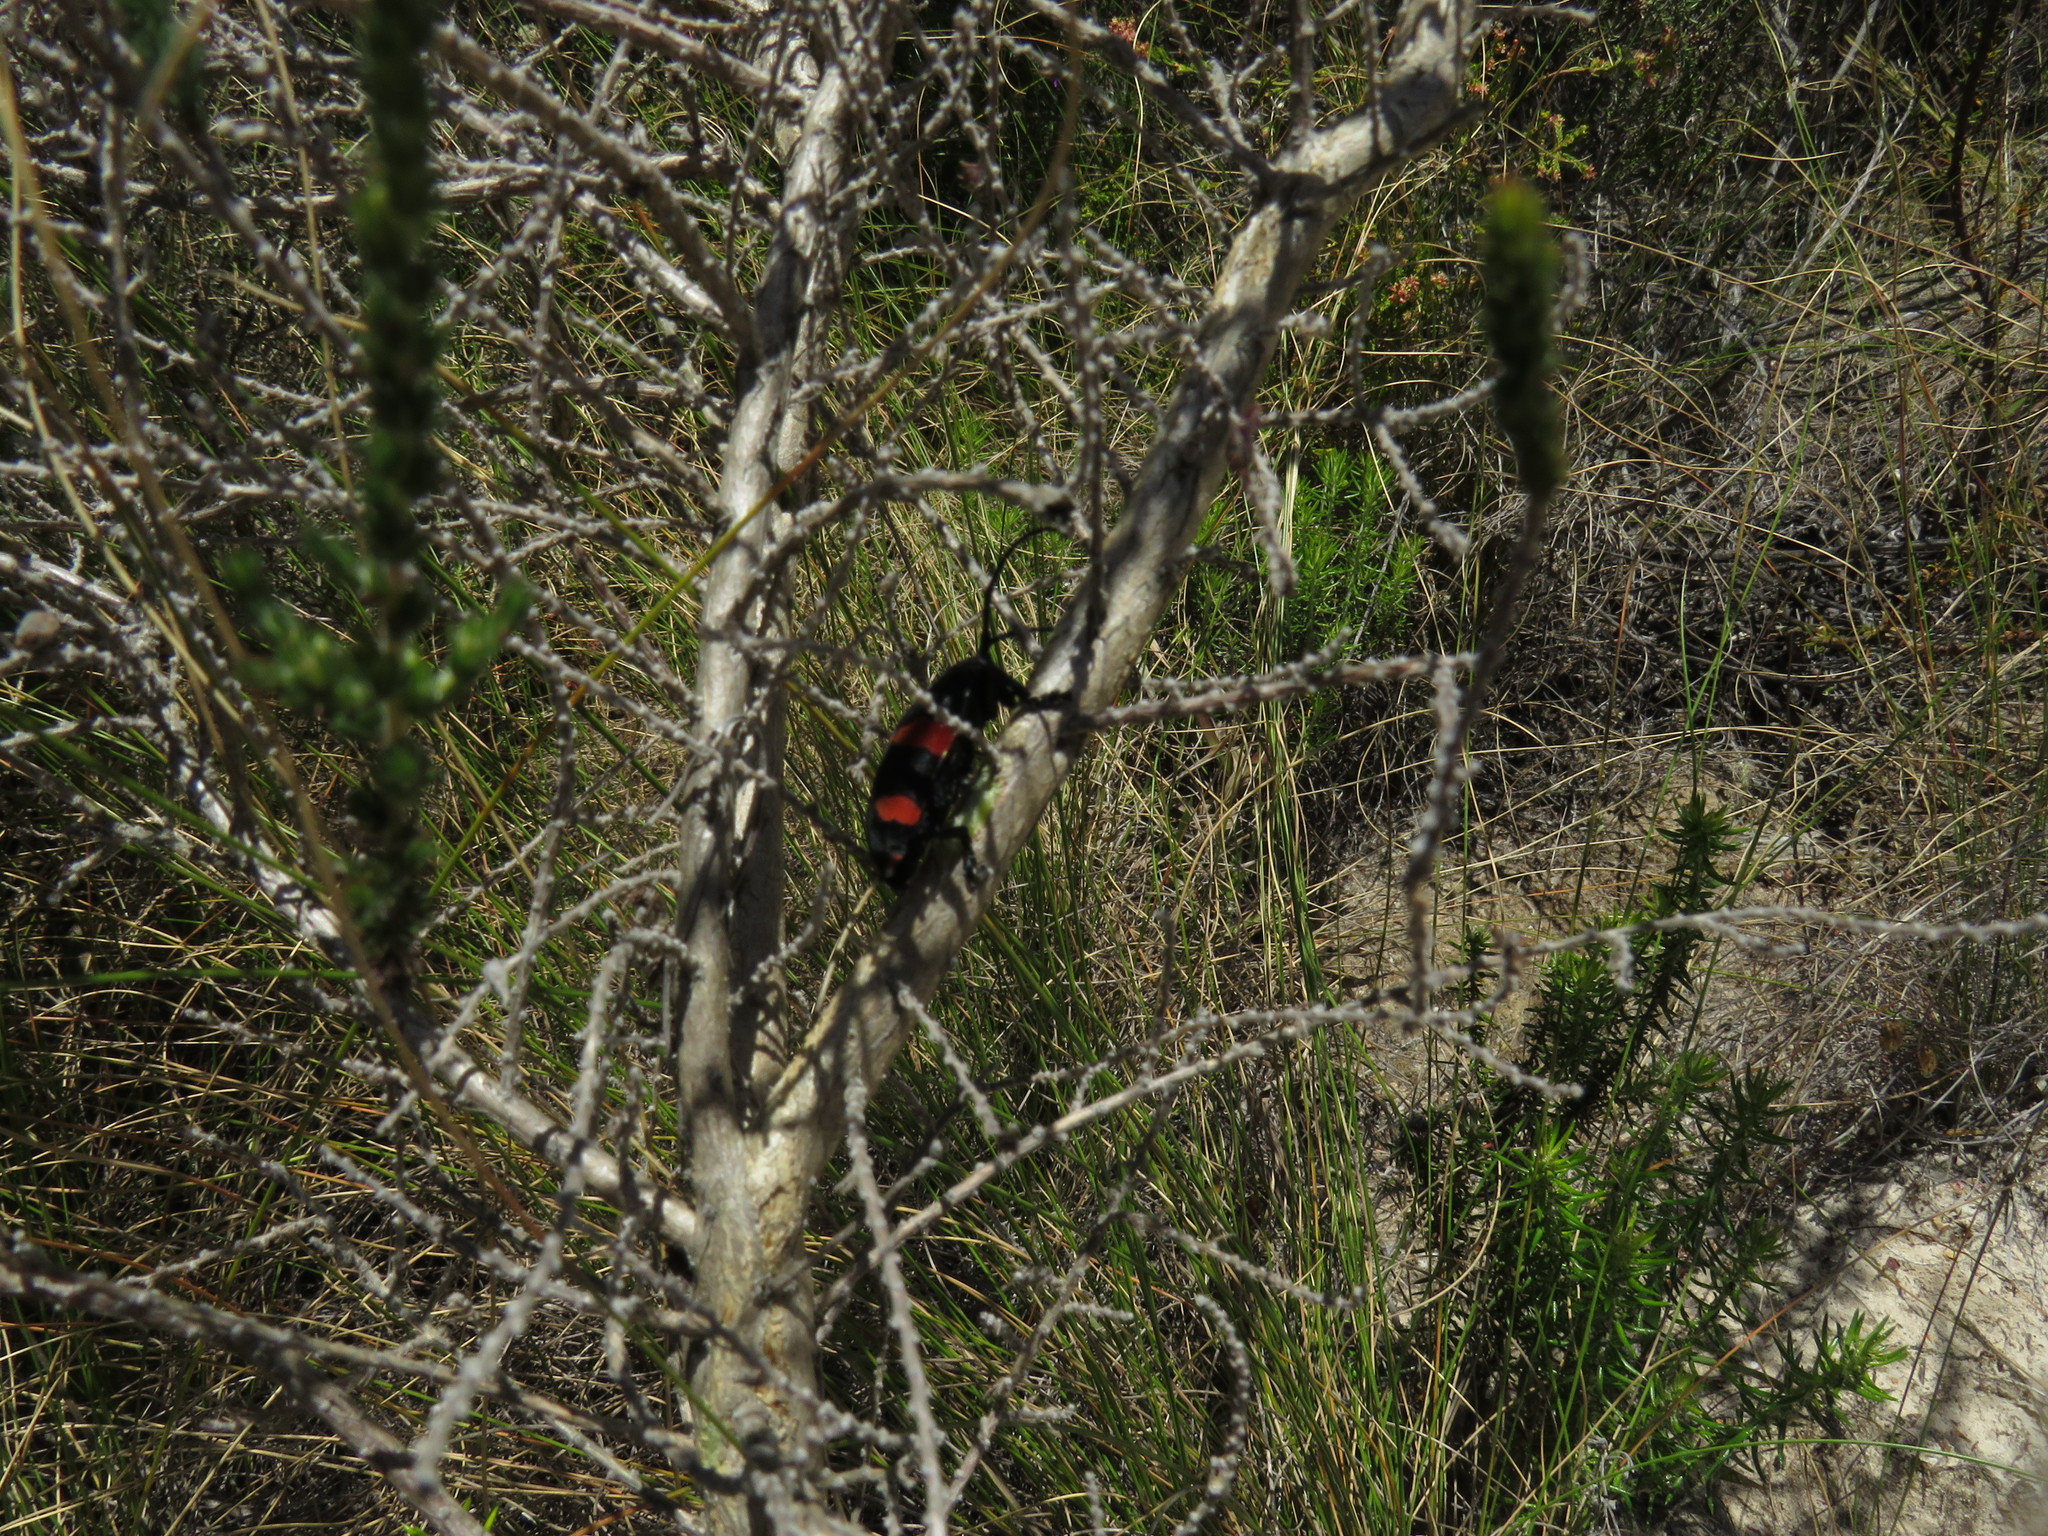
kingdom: Animalia
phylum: Arthropoda
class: Insecta
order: Coleoptera
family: Cerambycidae
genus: Ceroplesis
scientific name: Ceroplesis aethiops
